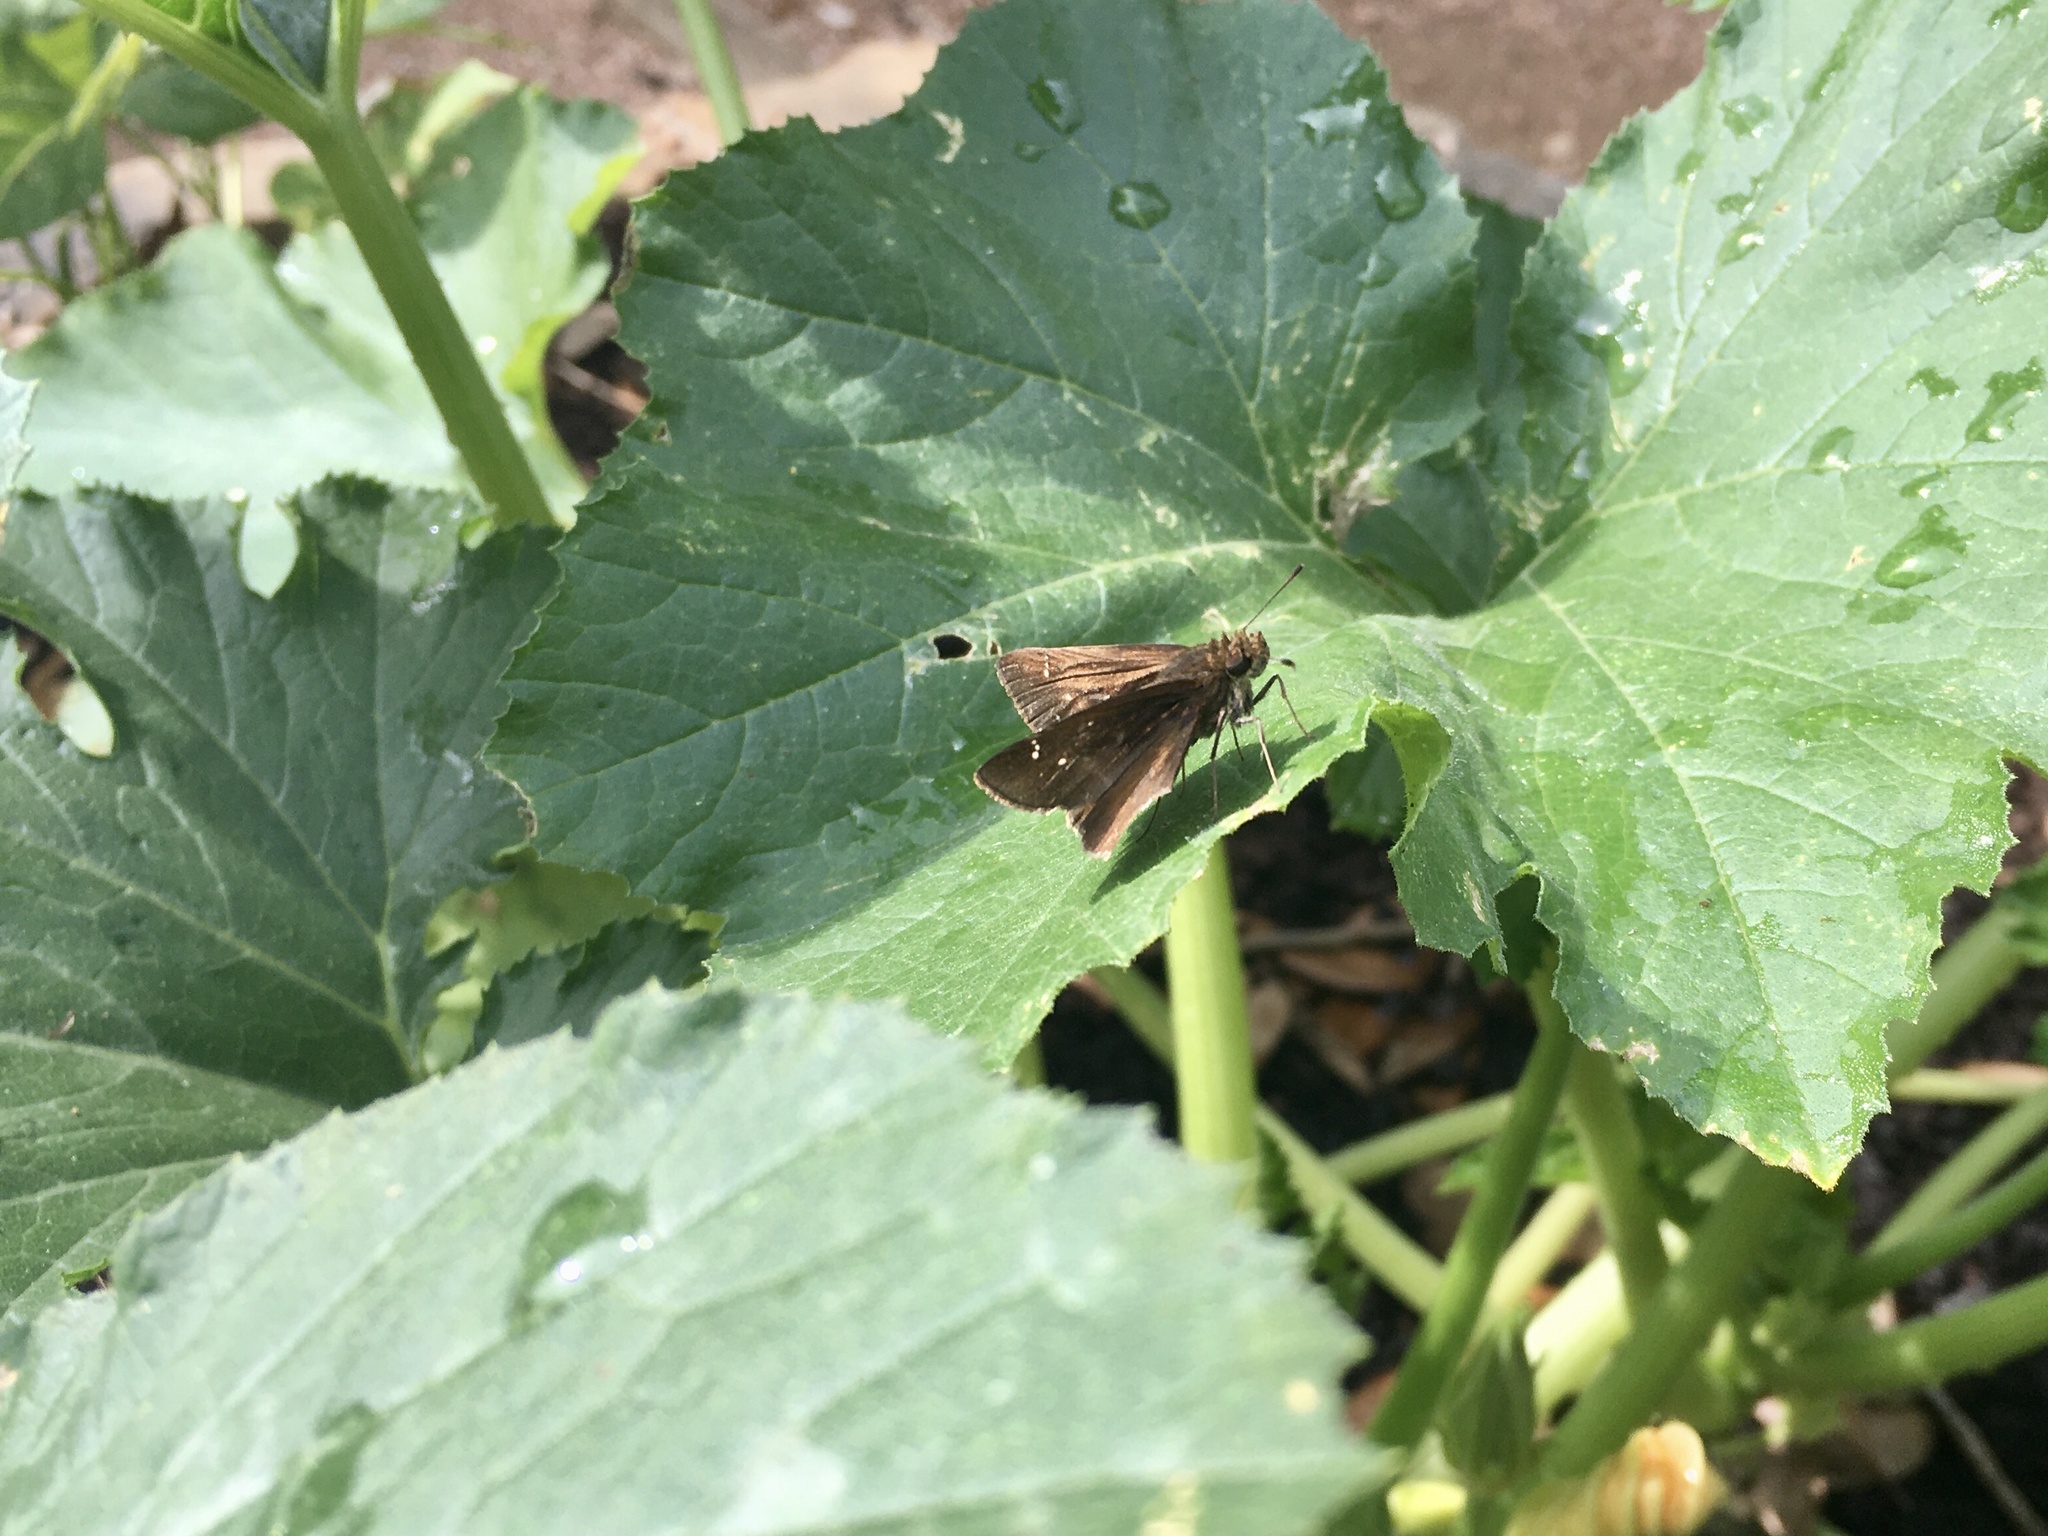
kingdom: Animalia
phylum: Arthropoda
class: Insecta
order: Lepidoptera
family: Hesperiidae
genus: Lerema
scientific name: Lerema accius
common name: Clouded skipper
